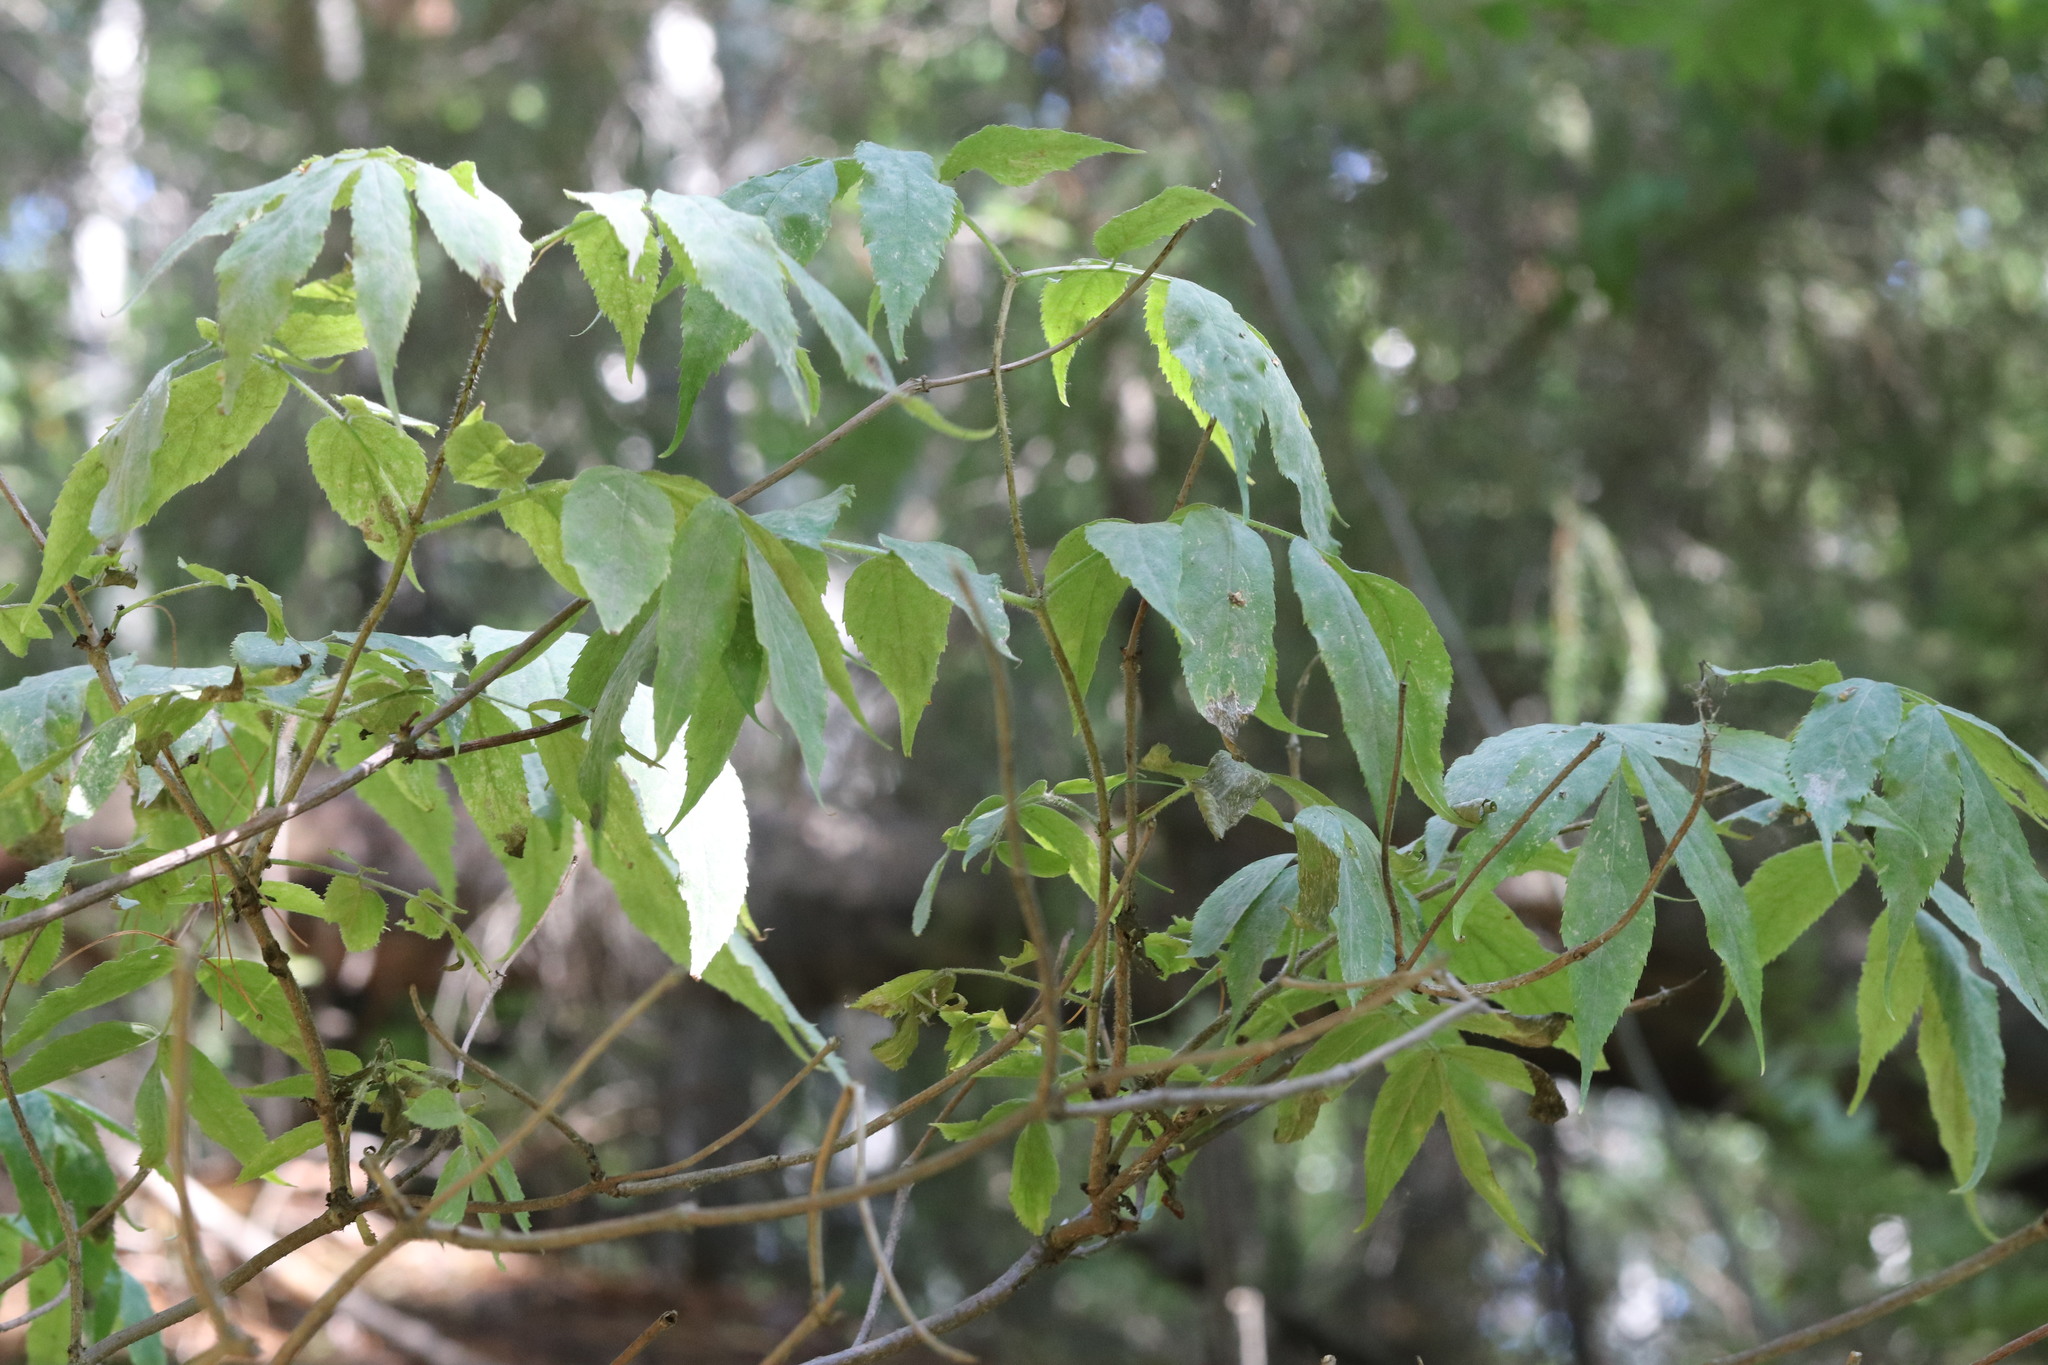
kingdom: Plantae
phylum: Tracheophyta
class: Magnoliopsida
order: Dipsacales
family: Viburnaceae
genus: Sambucus
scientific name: Sambucus sibirica
